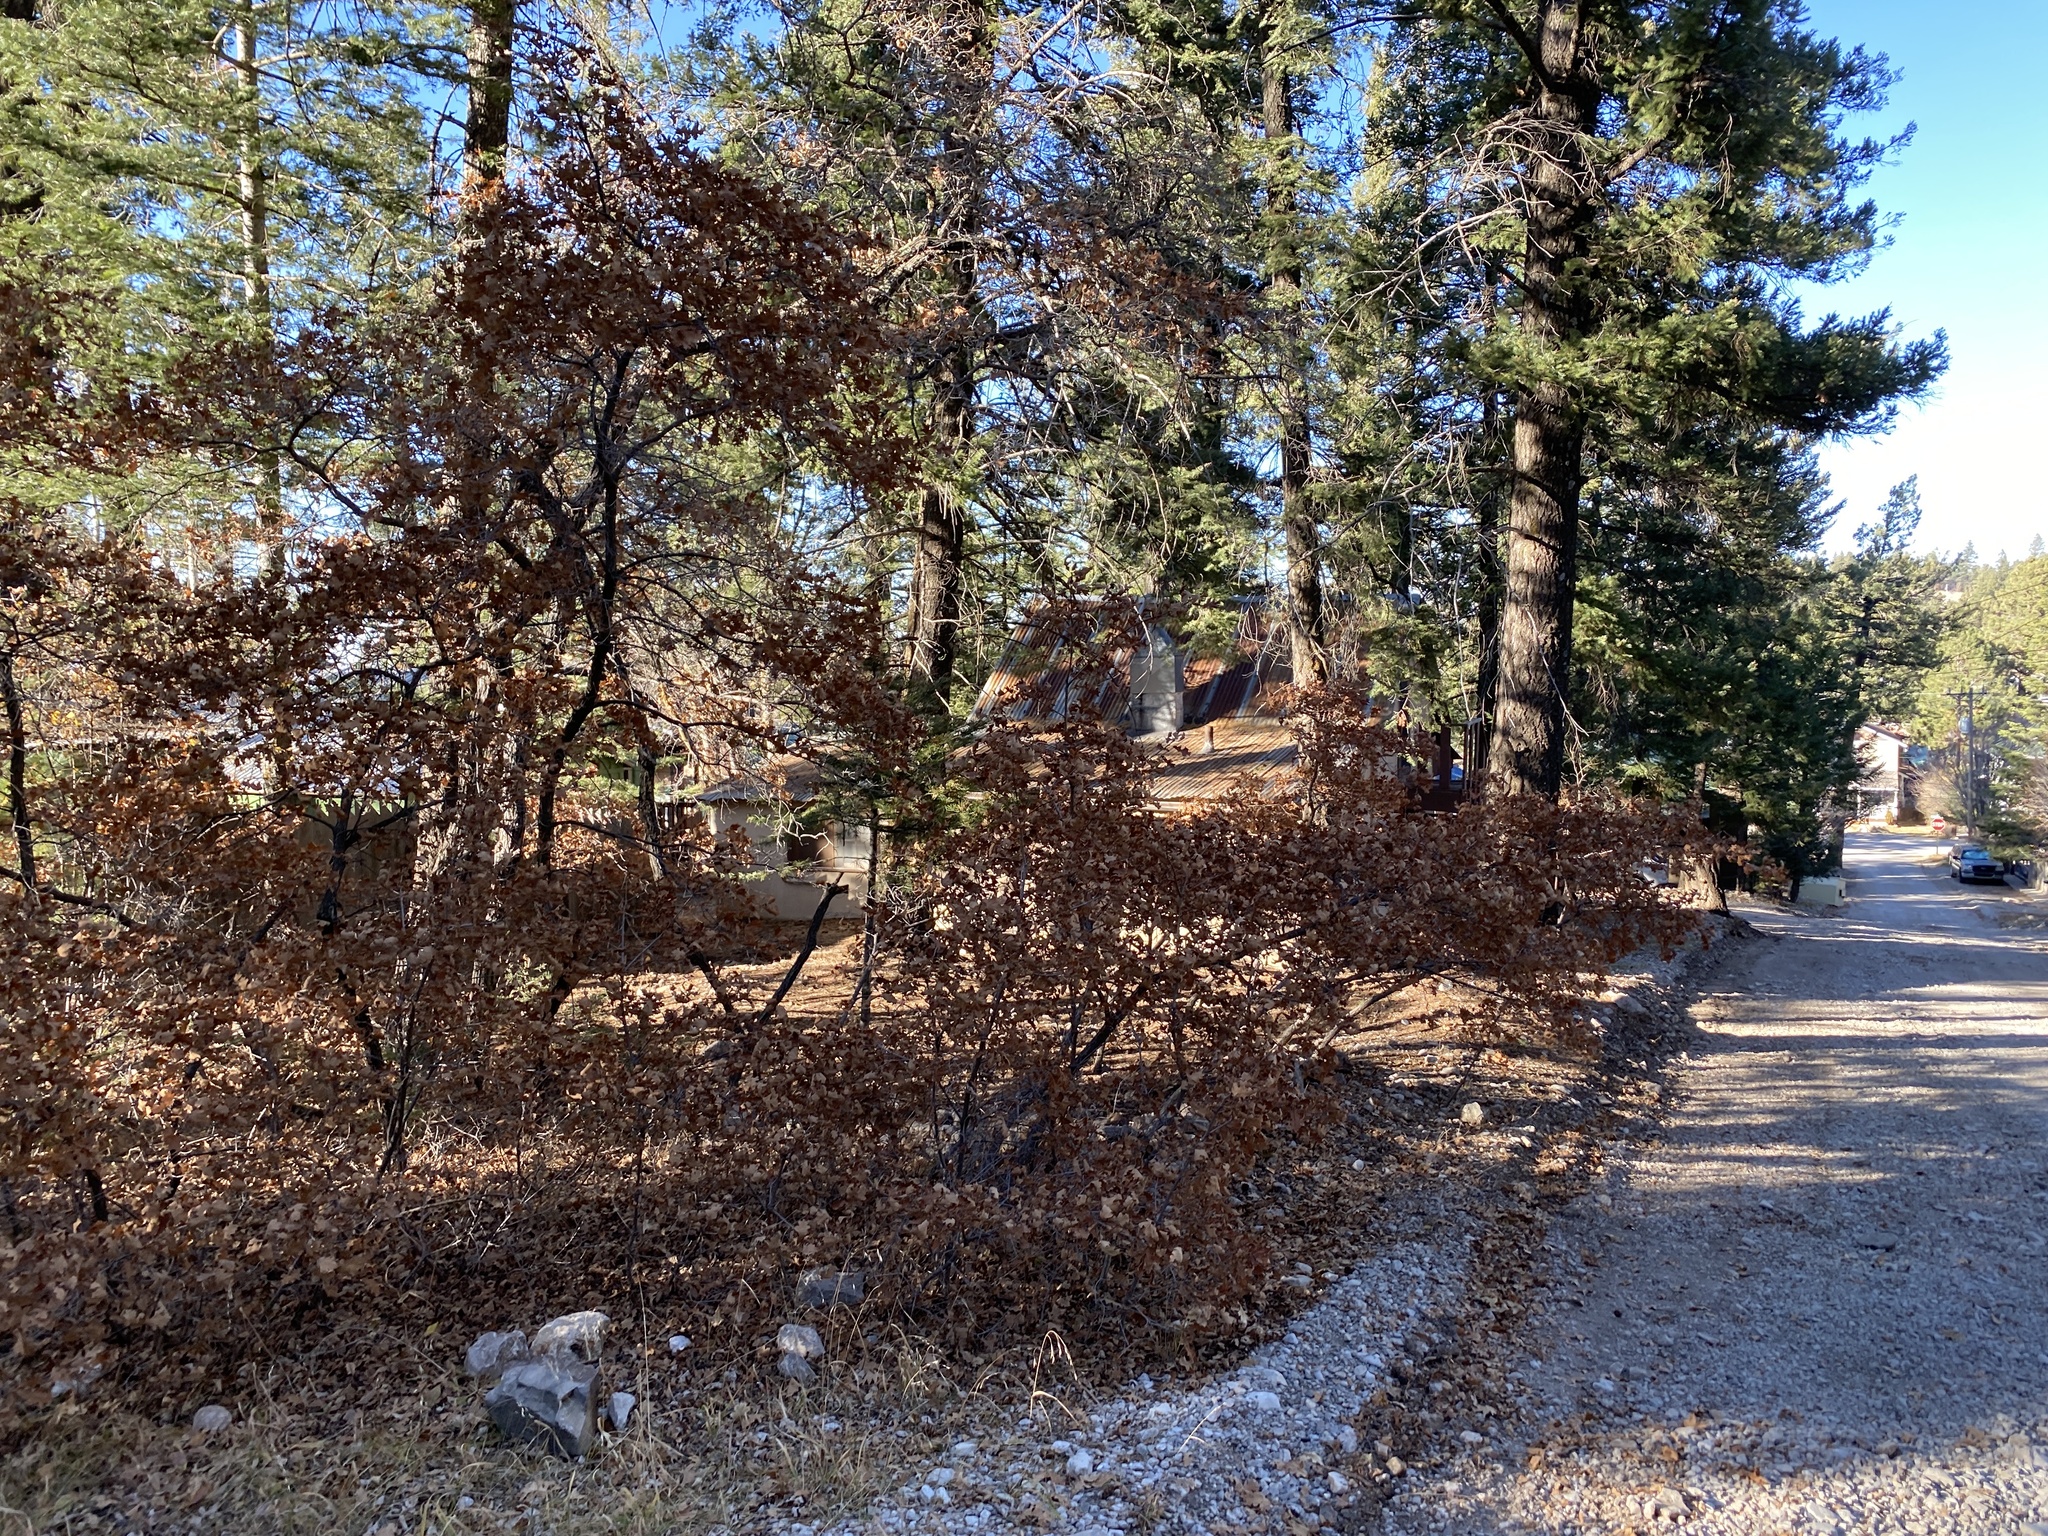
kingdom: Plantae
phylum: Tracheophyta
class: Magnoliopsida
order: Fagales
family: Fagaceae
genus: Quercus
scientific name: Quercus gambelii
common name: Gambel oak
